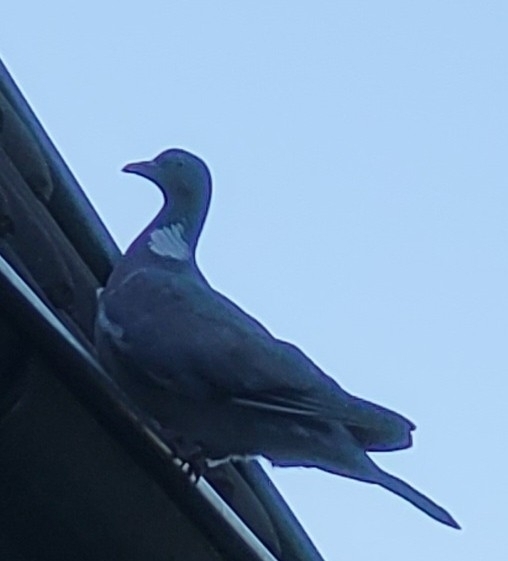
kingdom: Animalia
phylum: Chordata
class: Aves
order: Columbiformes
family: Columbidae
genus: Columba
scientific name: Columba palumbus
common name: Common wood pigeon
